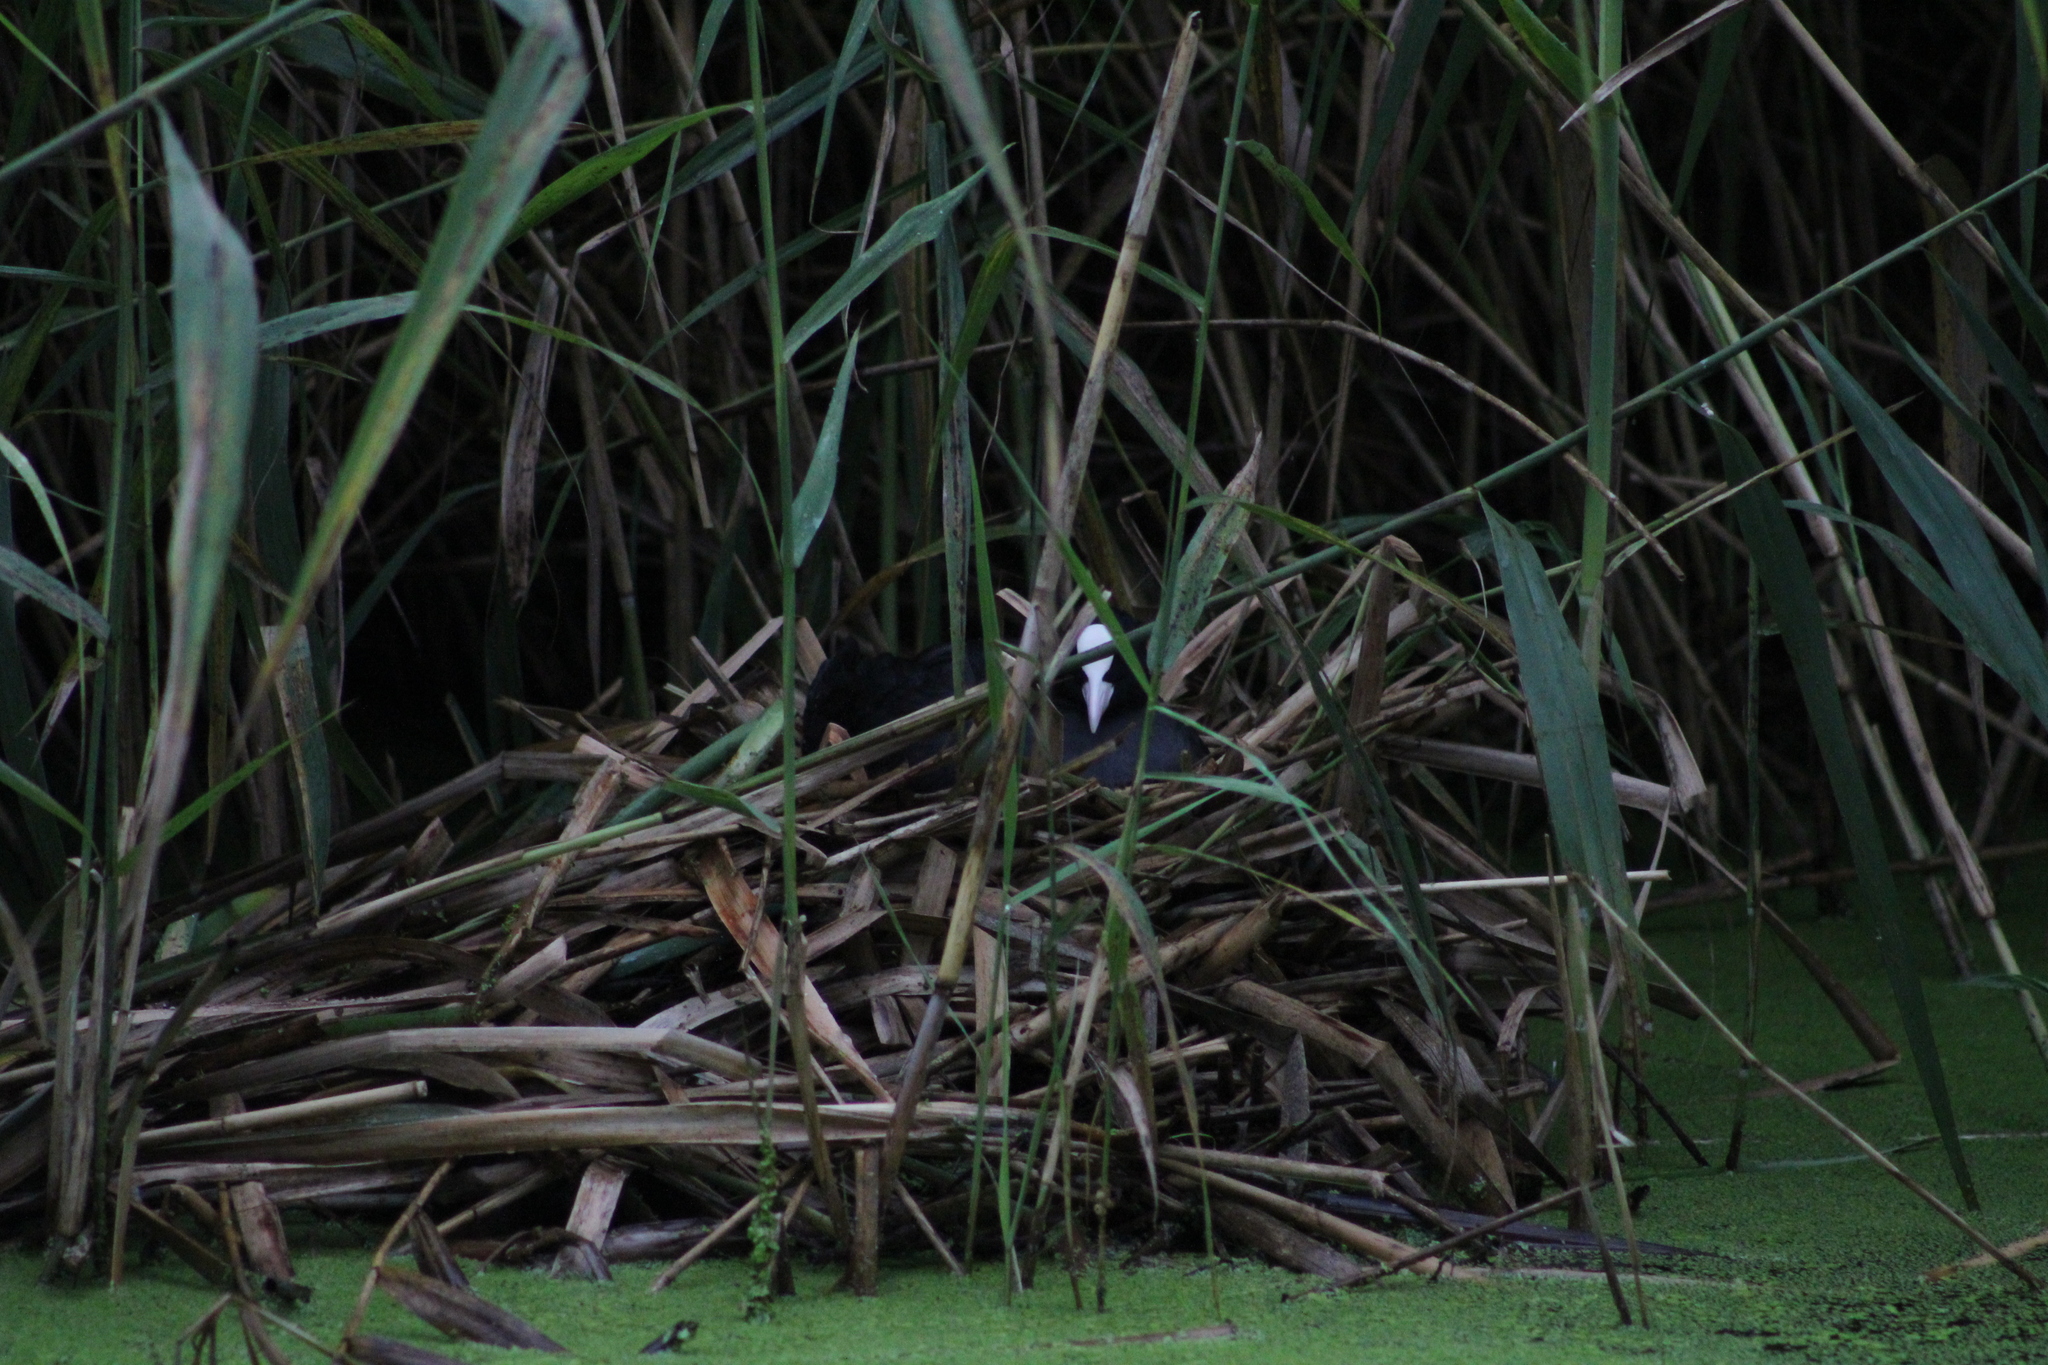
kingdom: Animalia
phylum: Chordata
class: Aves
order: Gruiformes
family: Rallidae
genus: Fulica
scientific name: Fulica atra
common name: Eurasian coot
